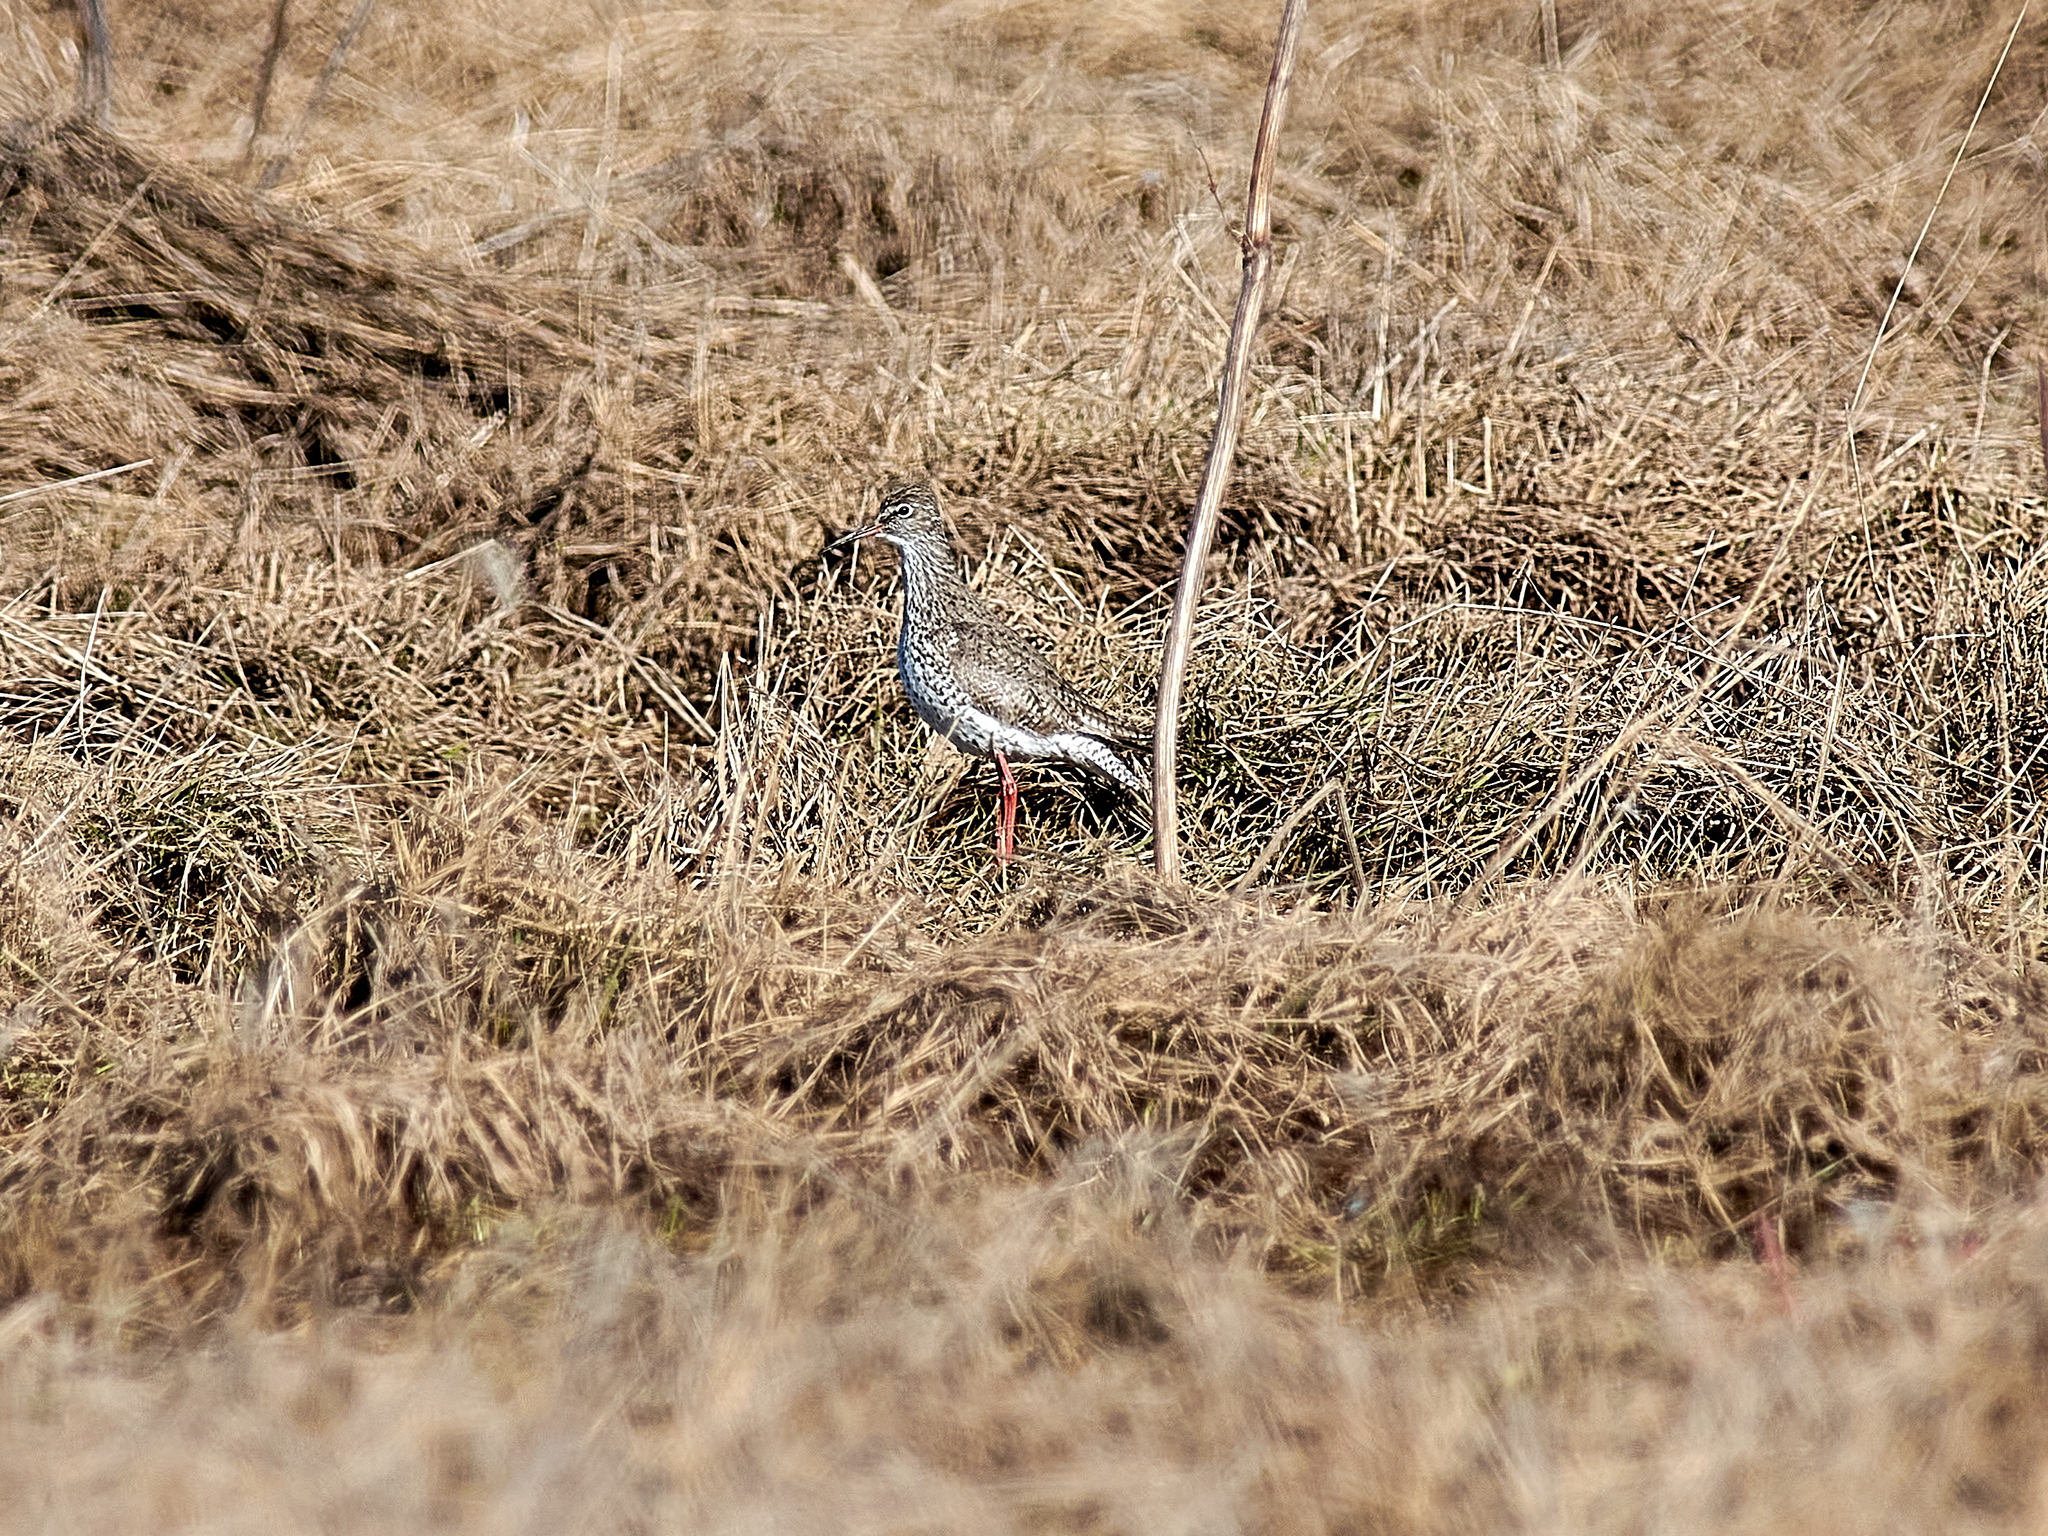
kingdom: Animalia
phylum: Chordata
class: Aves
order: Charadriiformes
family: Scolopacidae
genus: Tringa
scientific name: Tringa totanus
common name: Common redshank
